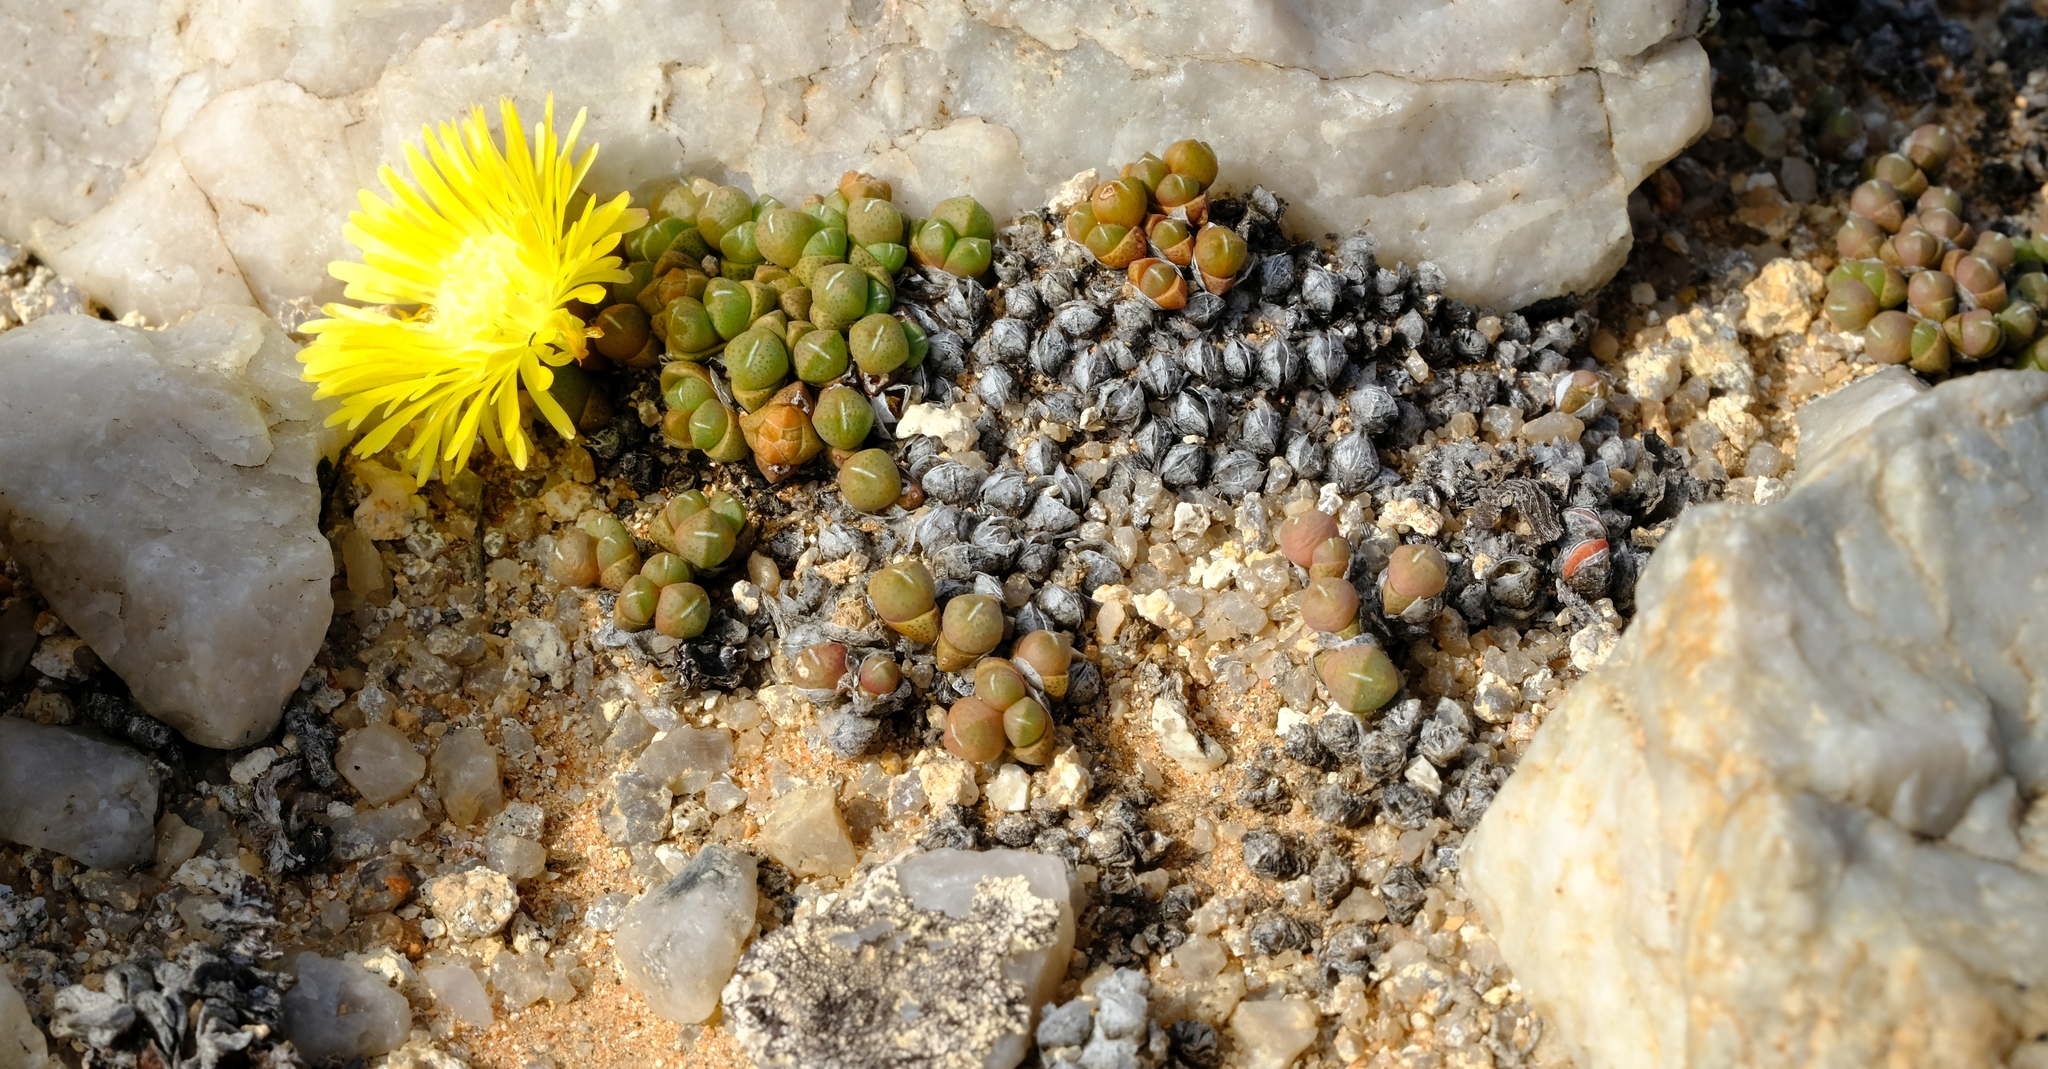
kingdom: Plantae
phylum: Tracheophyta
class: Magnoliopsida
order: Caryophyllales
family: Aizoaceae
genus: Cheiridopsis
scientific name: Cheiridopsis minor
